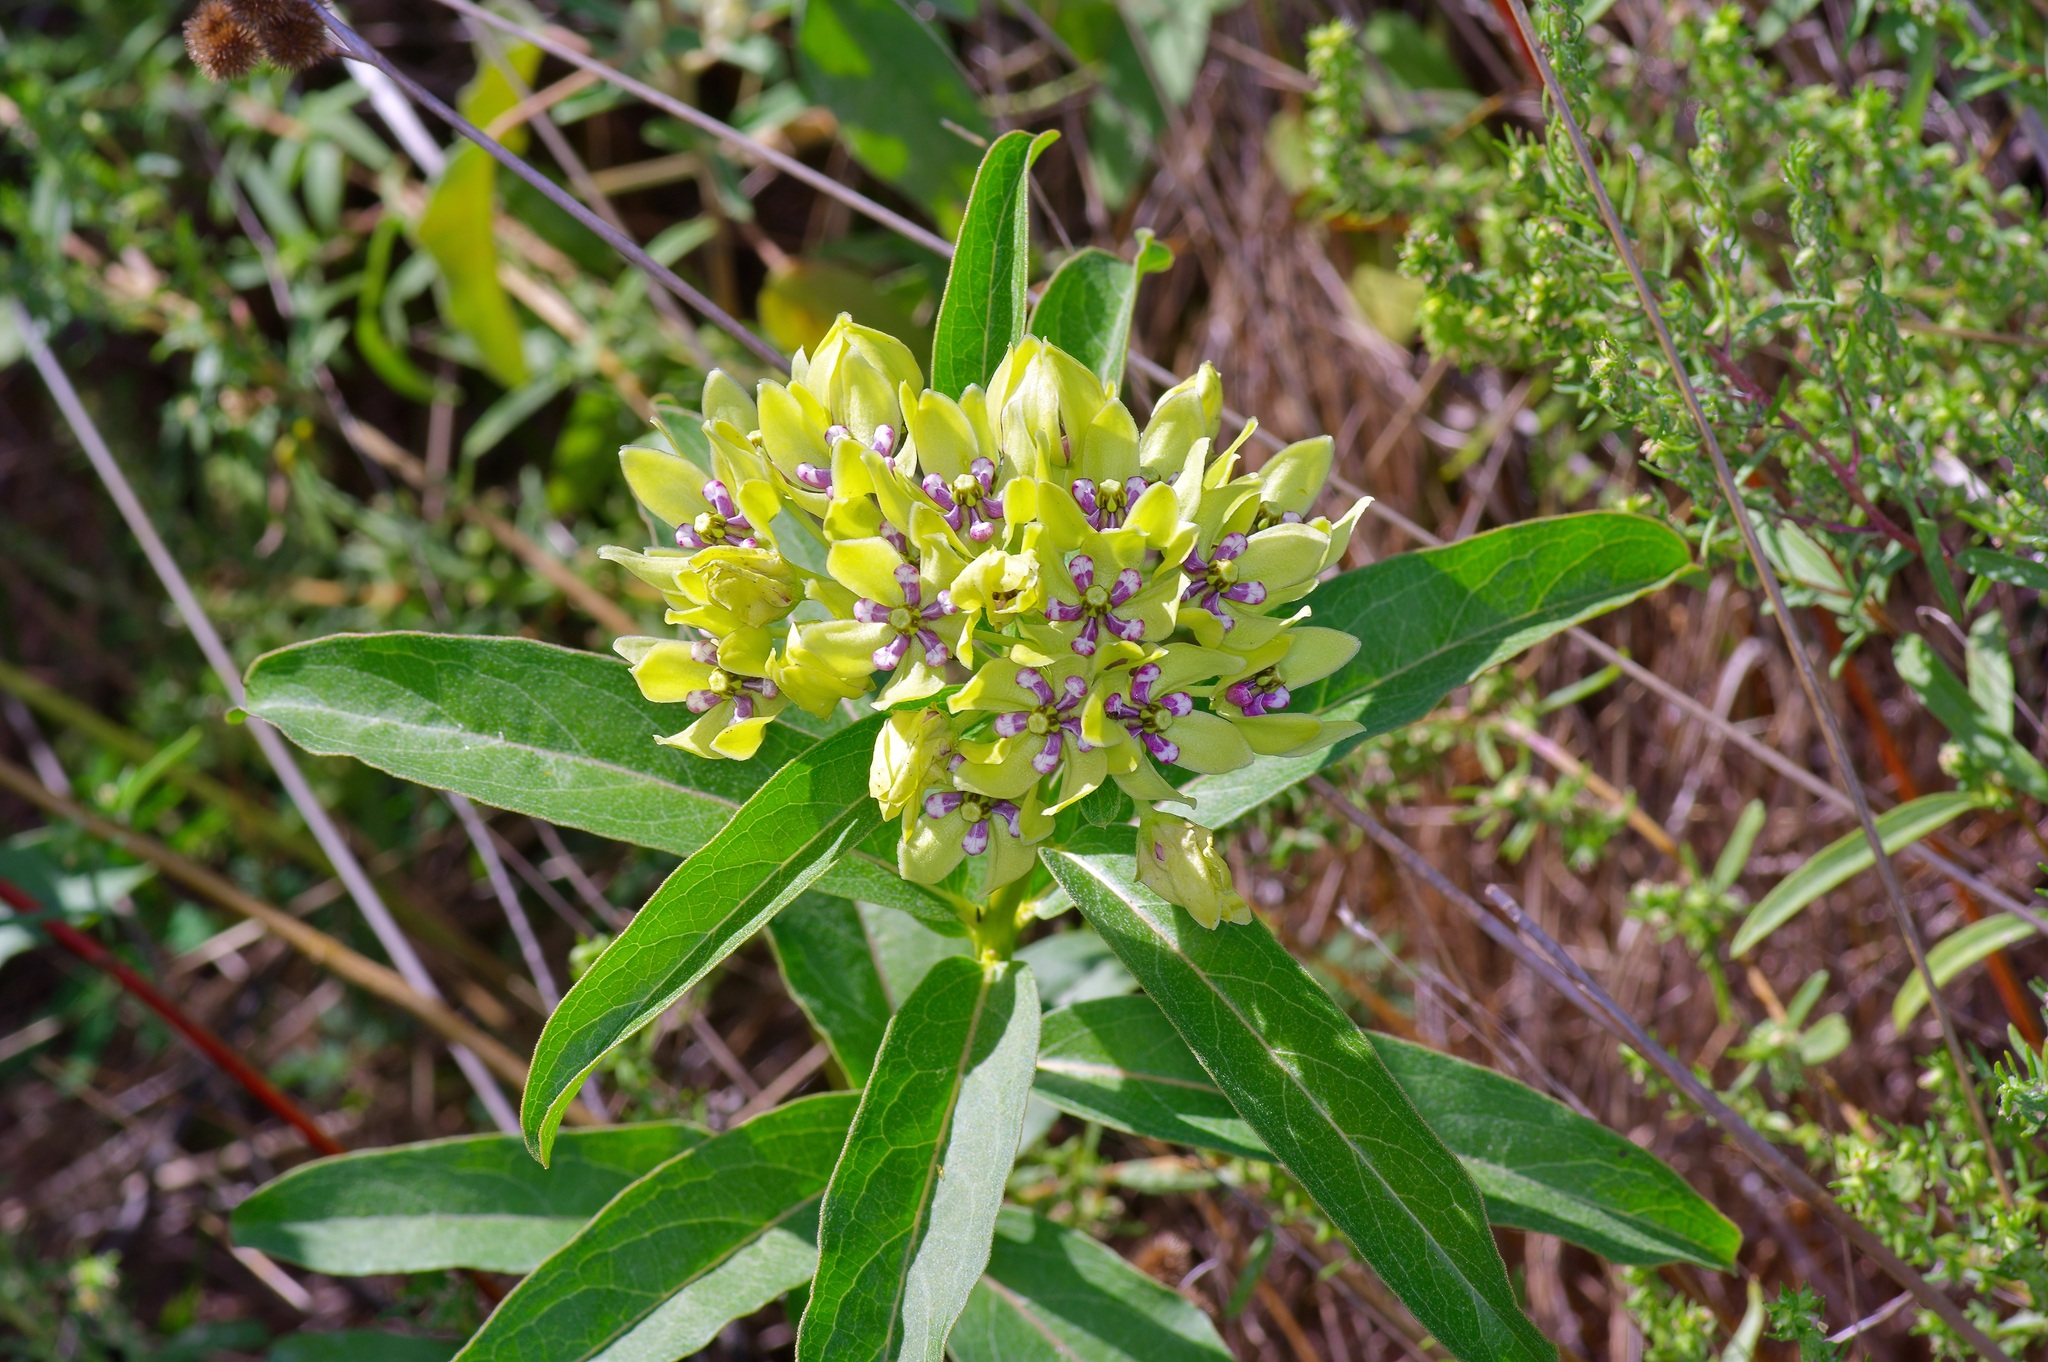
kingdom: Plantae
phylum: Tracheophyta
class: Magnoliopsida
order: Gentianales
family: Apocynaceae
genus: Asclepias
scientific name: Asclepias viridis
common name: Antelope-horns
